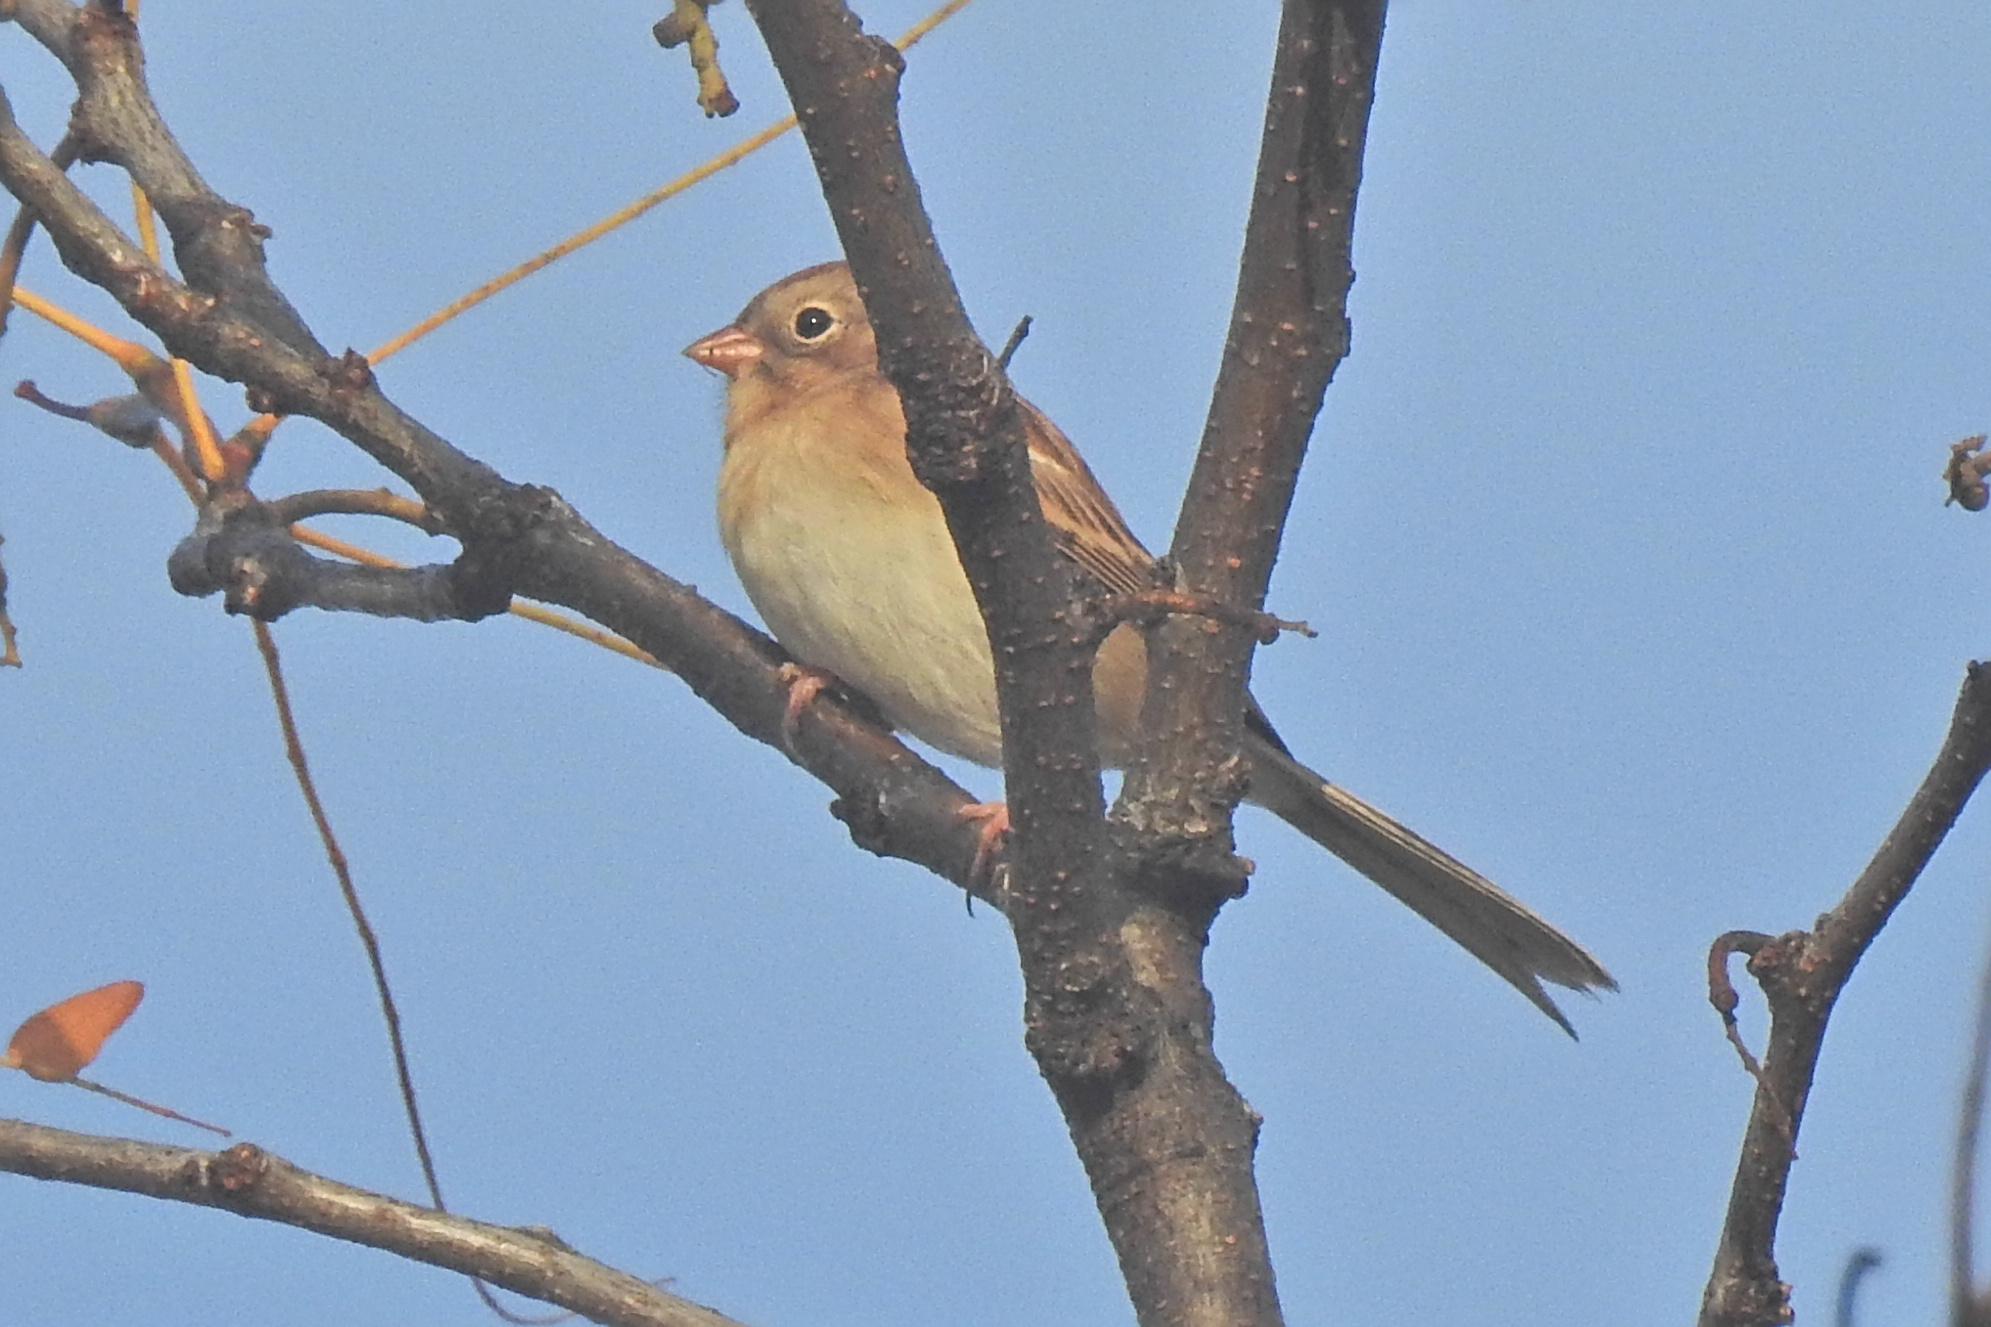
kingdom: Animalia
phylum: Chordata
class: Aves
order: Passeriformes
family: Passerellidae
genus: Spizella
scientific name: Spizella pusilla
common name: Field sparrow
